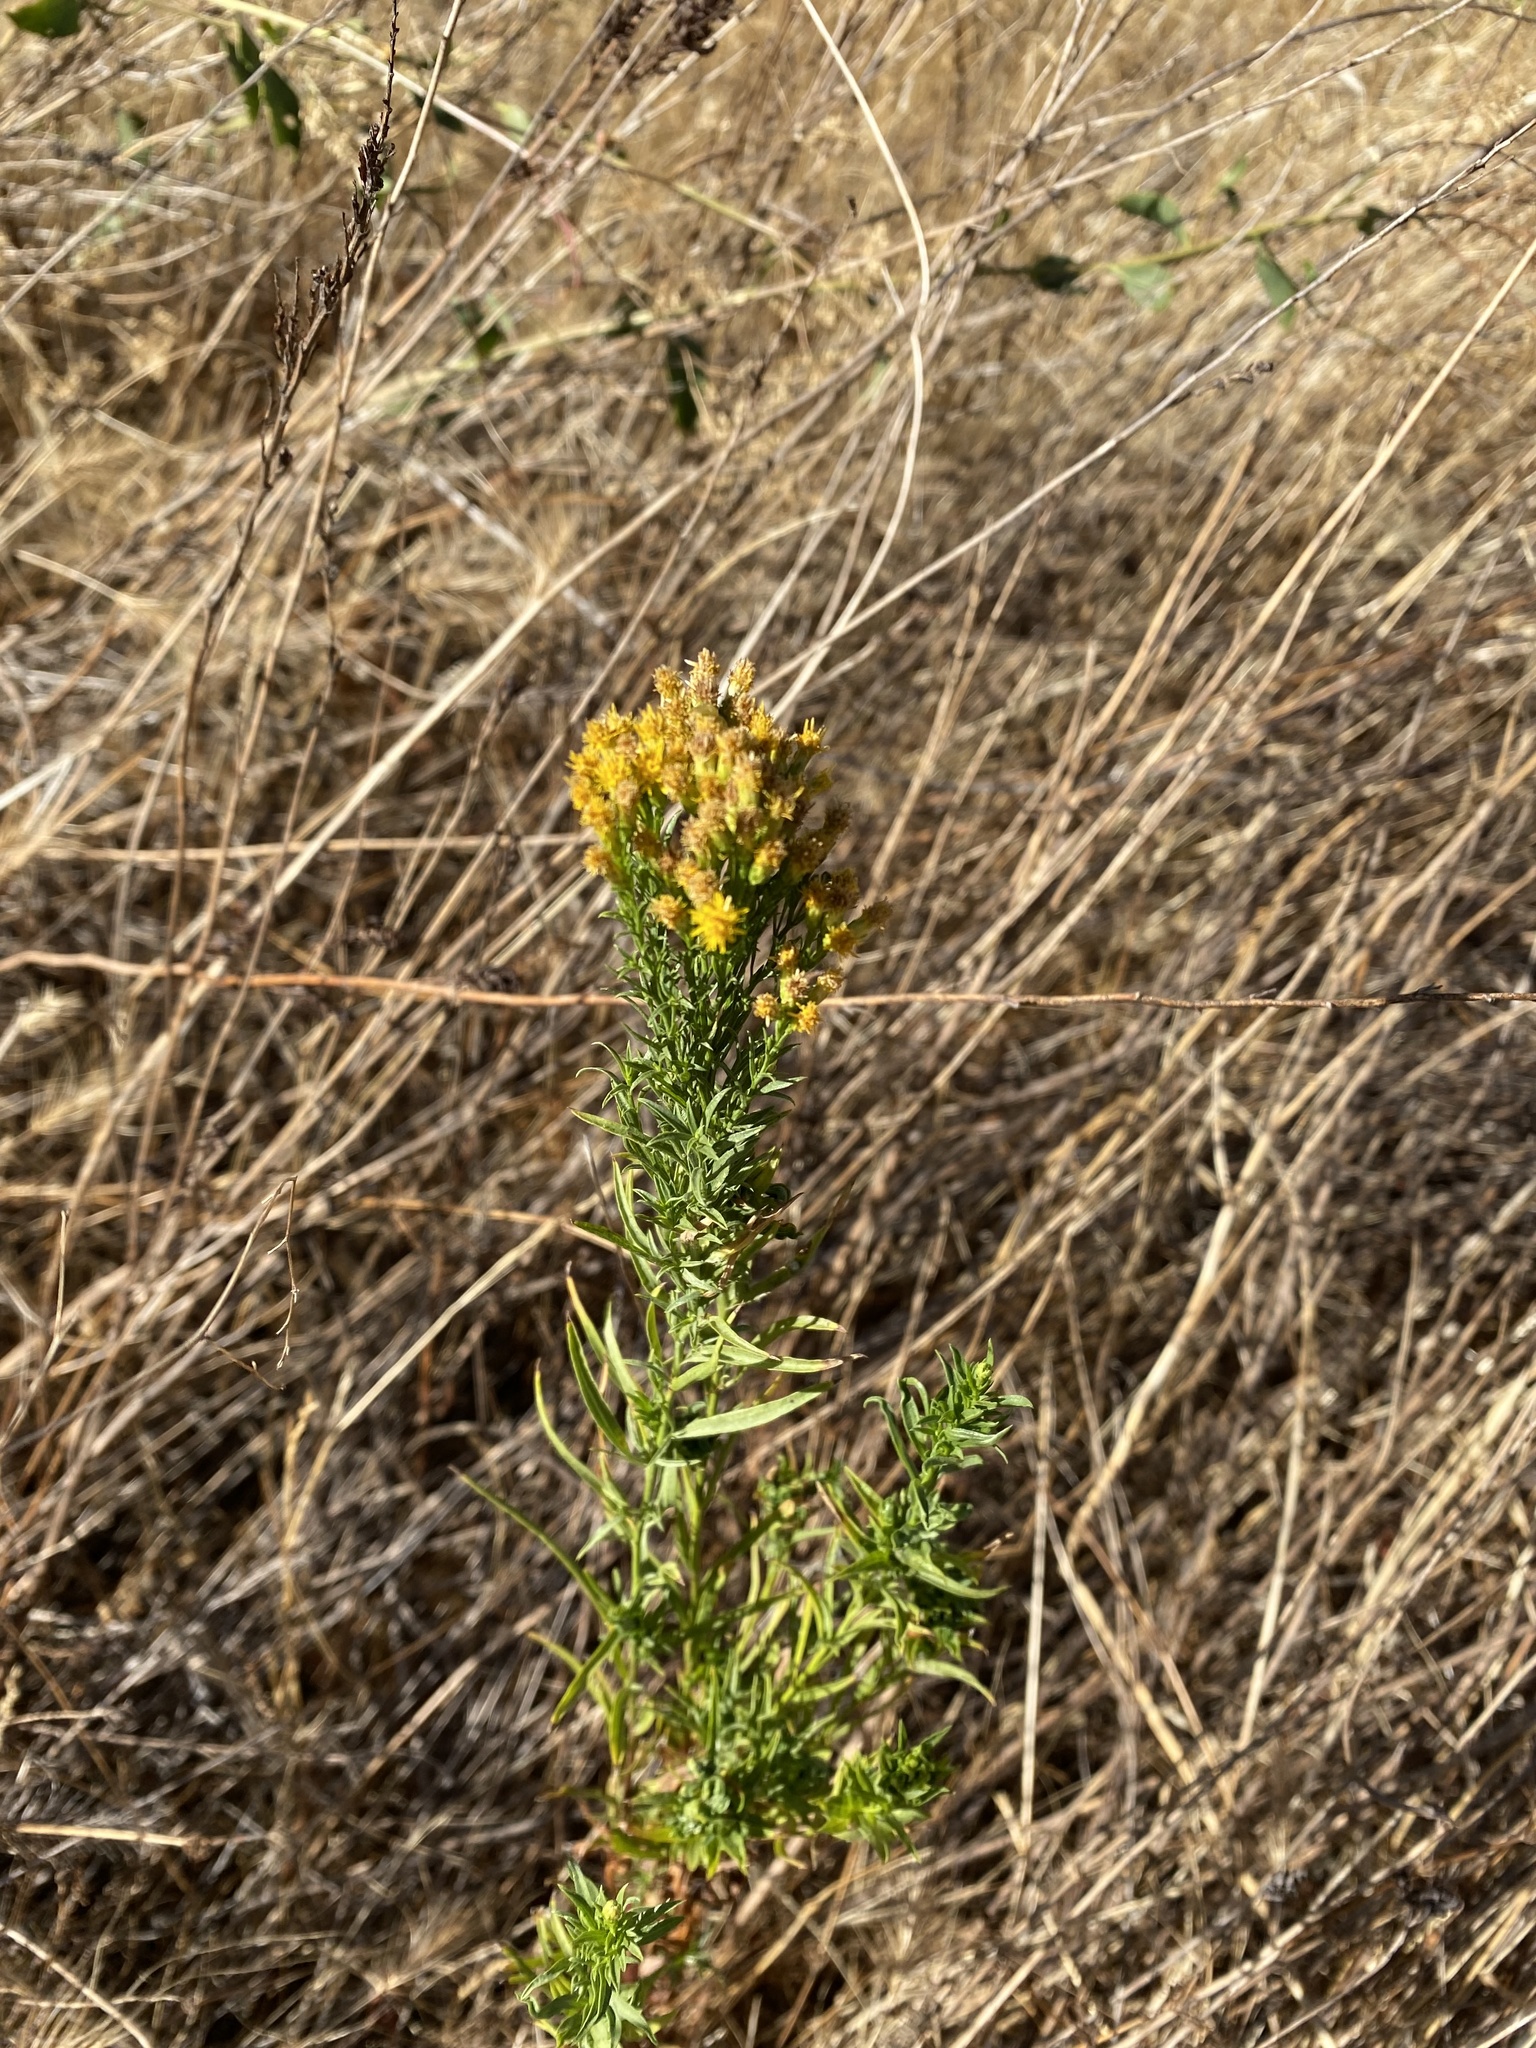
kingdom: Plantae
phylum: Tracheophyta
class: Magnoliopsida
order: Asterales
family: Asteraceae
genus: Euthamia
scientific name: Euthamia occidentalis
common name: Western goldentop
